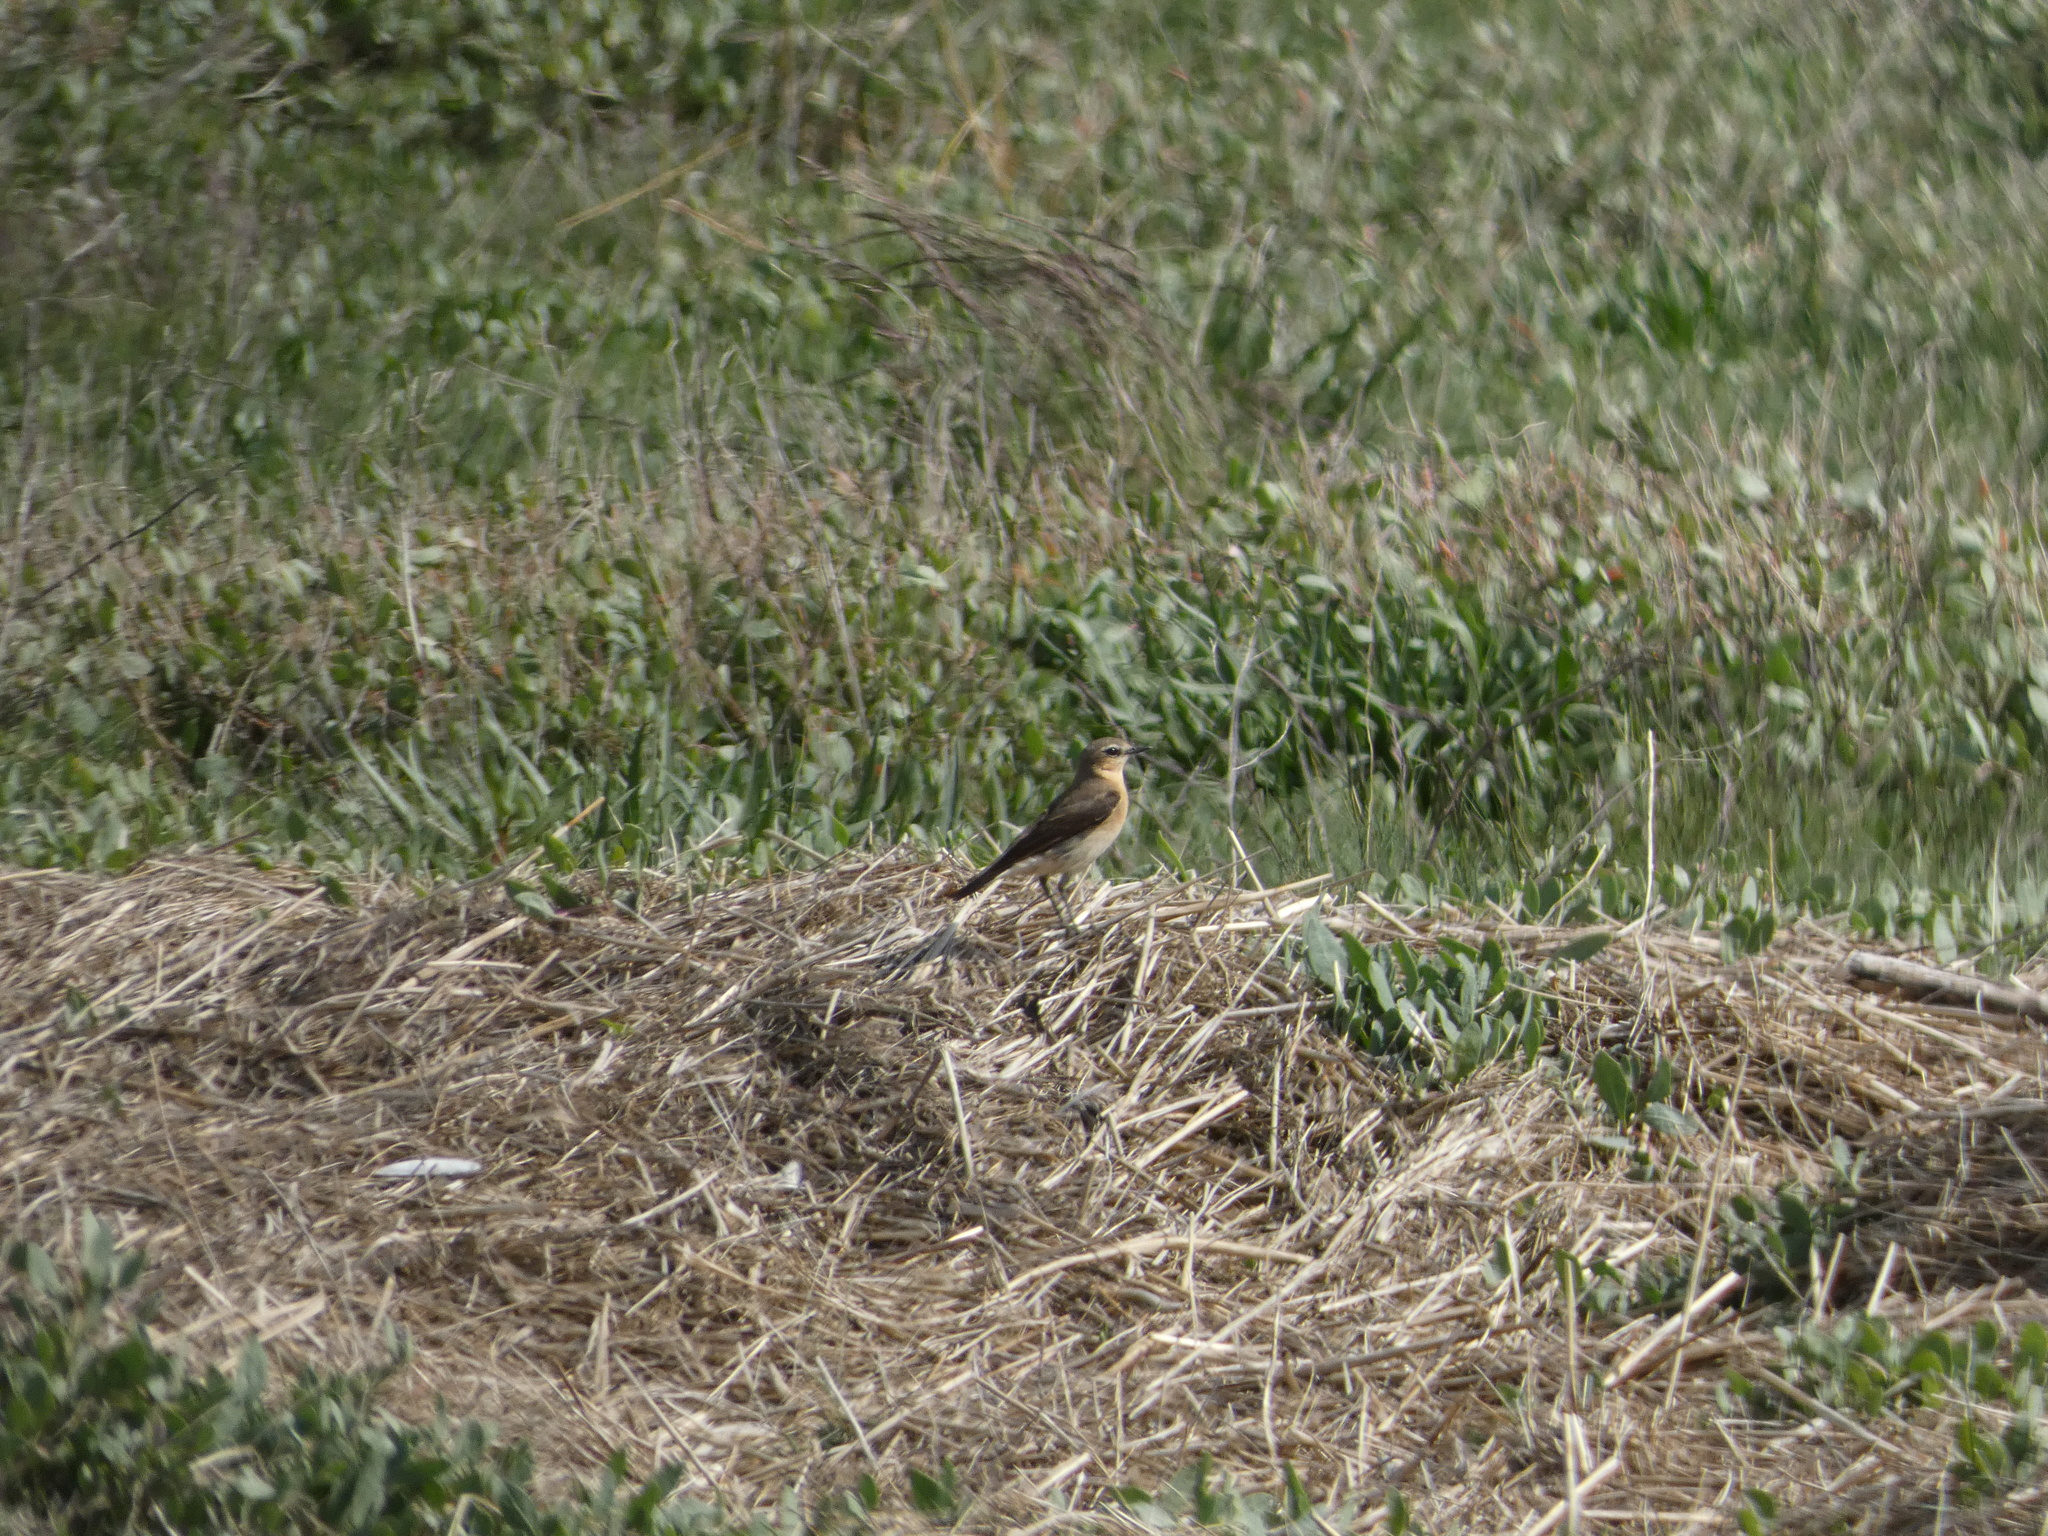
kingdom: Animalia
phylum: Chordata
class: Aves
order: Passeriformes
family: Muscicapidae
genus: Oenanthe
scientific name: Oenanthe oenanthe
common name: Northern wheatear
